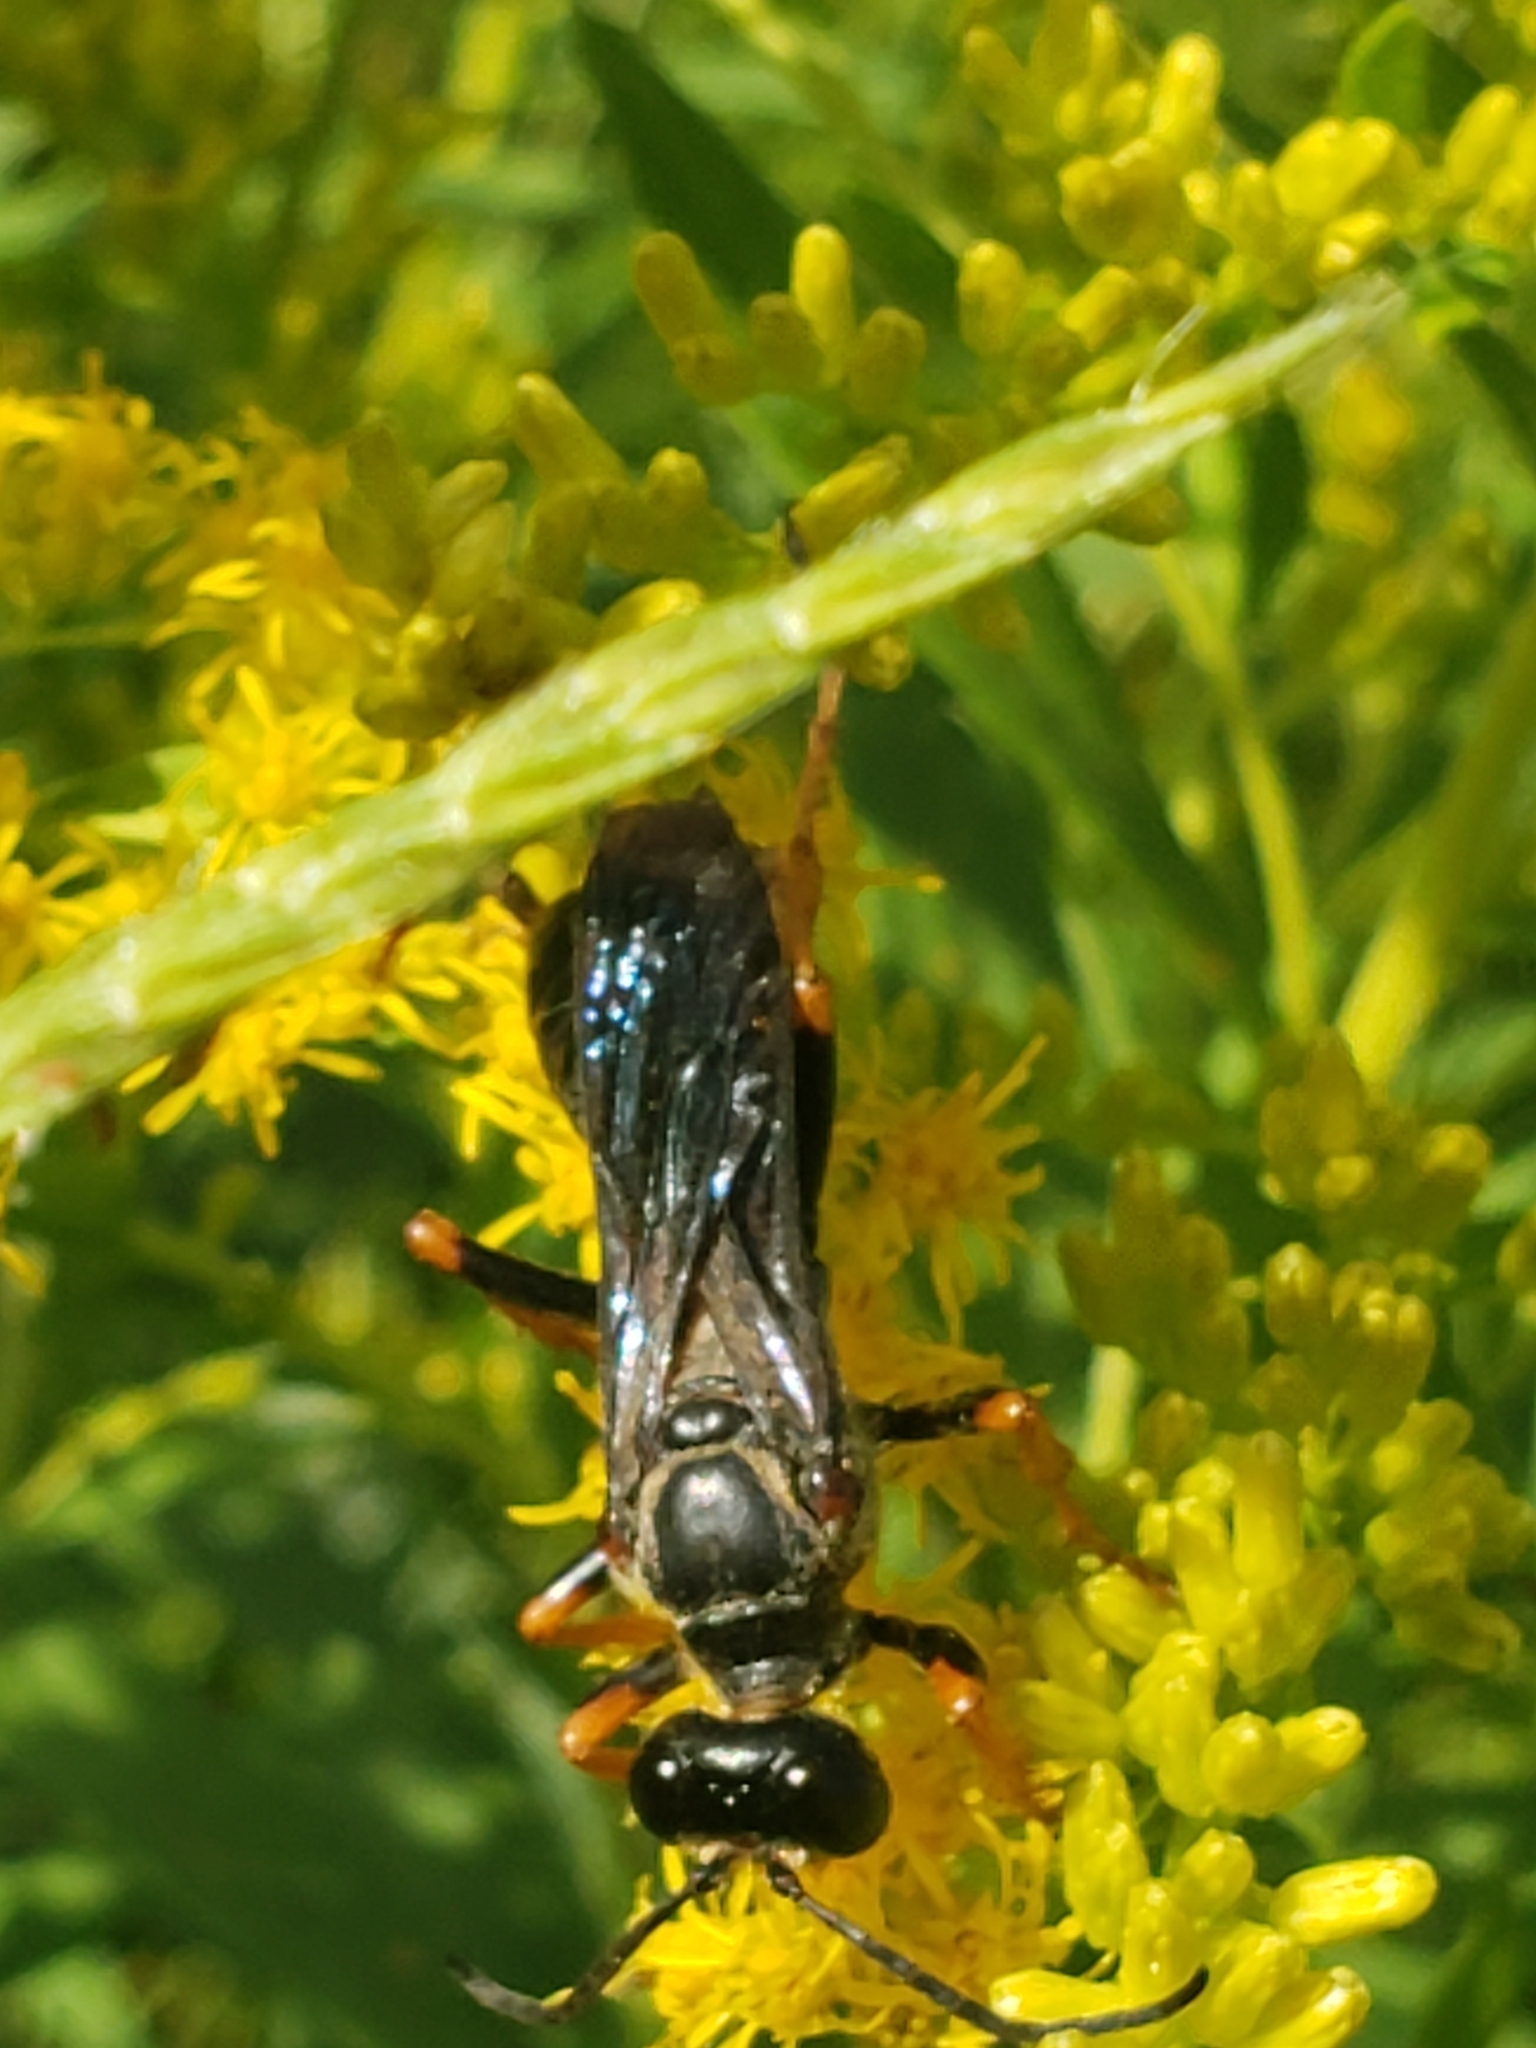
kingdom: Animalia
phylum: Arthropoda
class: Insecta
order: Hymenoptera
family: Sphecidae
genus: Sphex
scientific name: Sphex nudus
